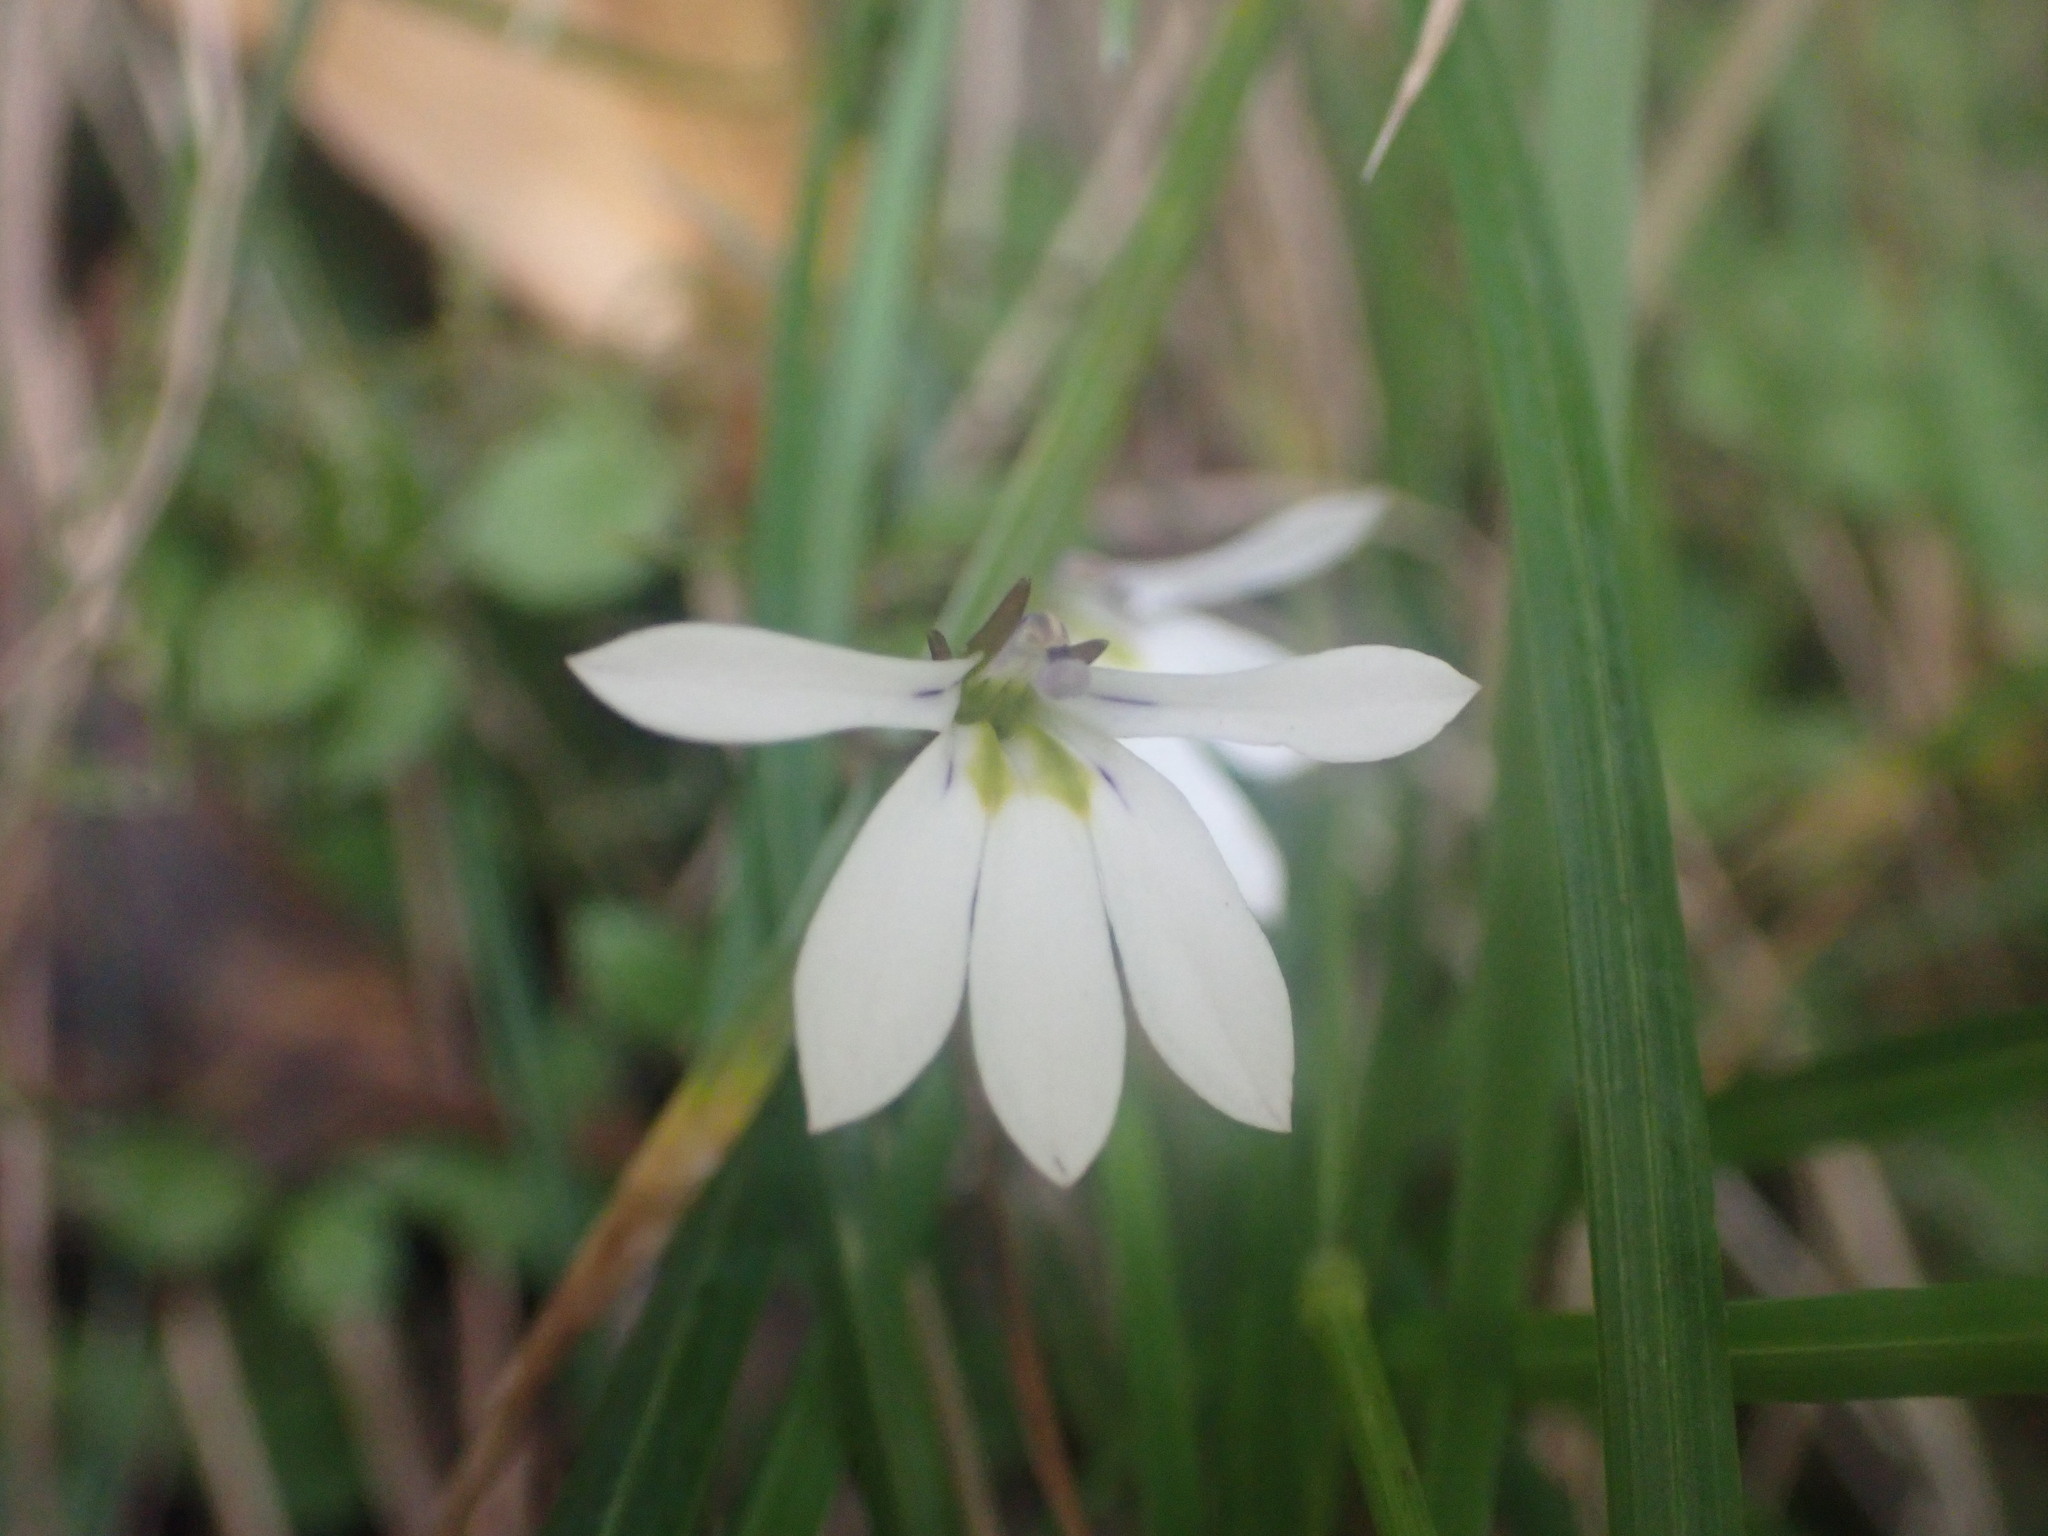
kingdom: Plantae
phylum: Tracheophyta
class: Magnoliopsida
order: Asterales
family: Campanulaceae
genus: Lobelia
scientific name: Lobelia angulata
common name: Lawn lobelia
